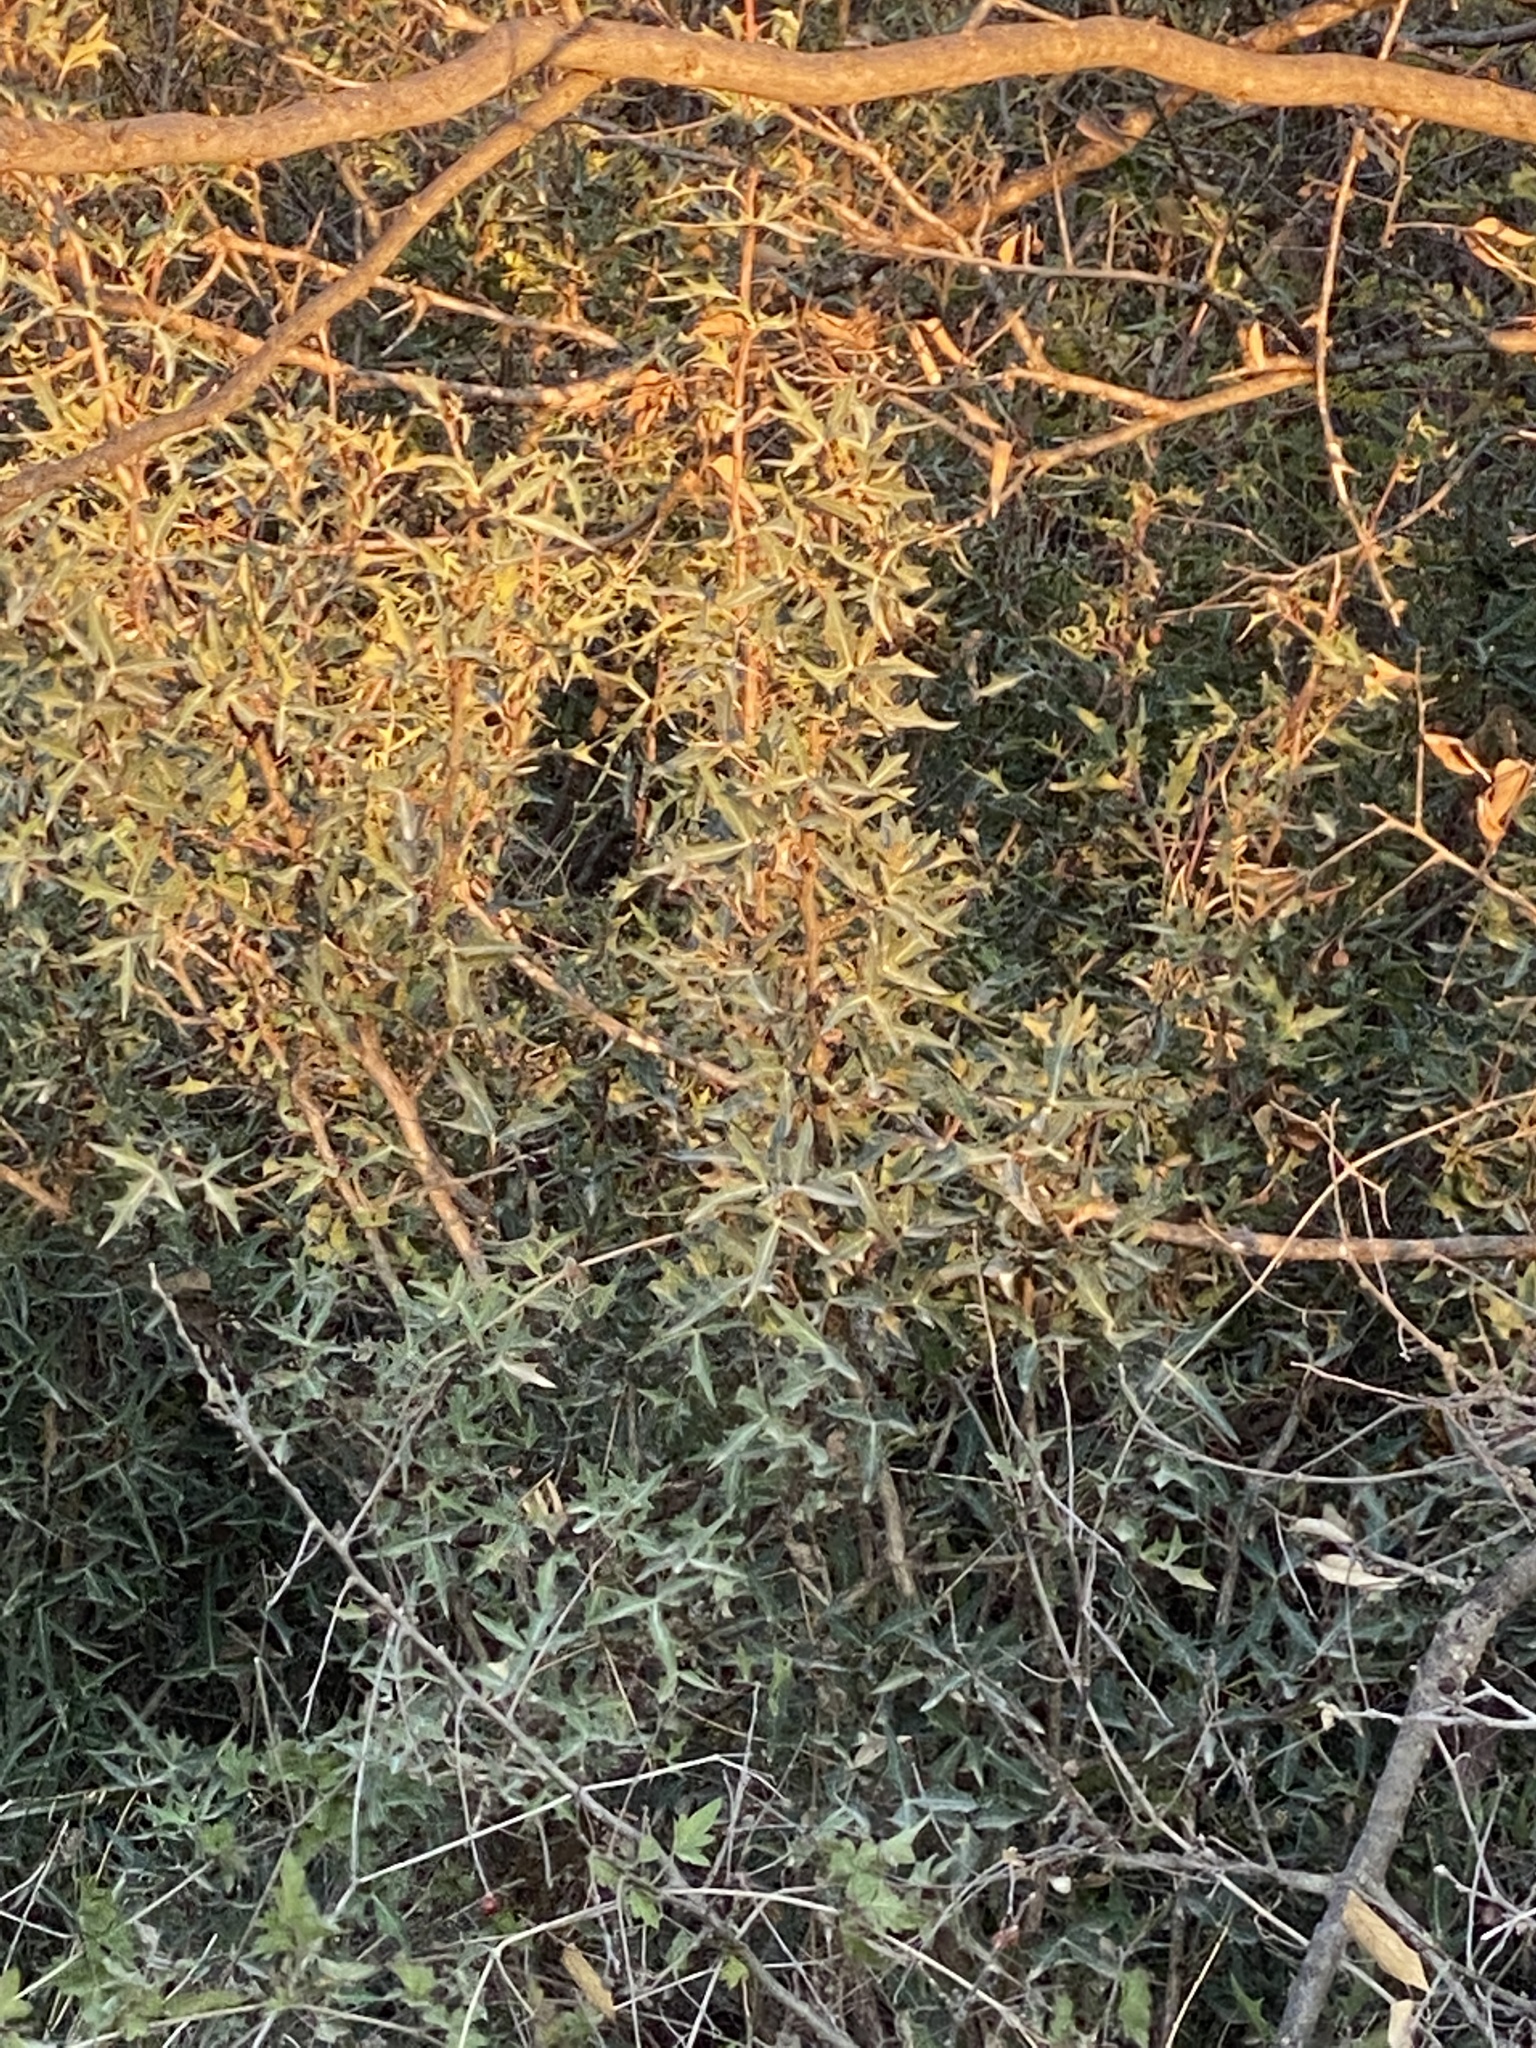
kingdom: Plantae
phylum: Tracheophyta
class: Magnoliopsida
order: Ranunculales
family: Berberidaceae
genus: Alloberberis
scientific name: Alloberberis trifoliolata
